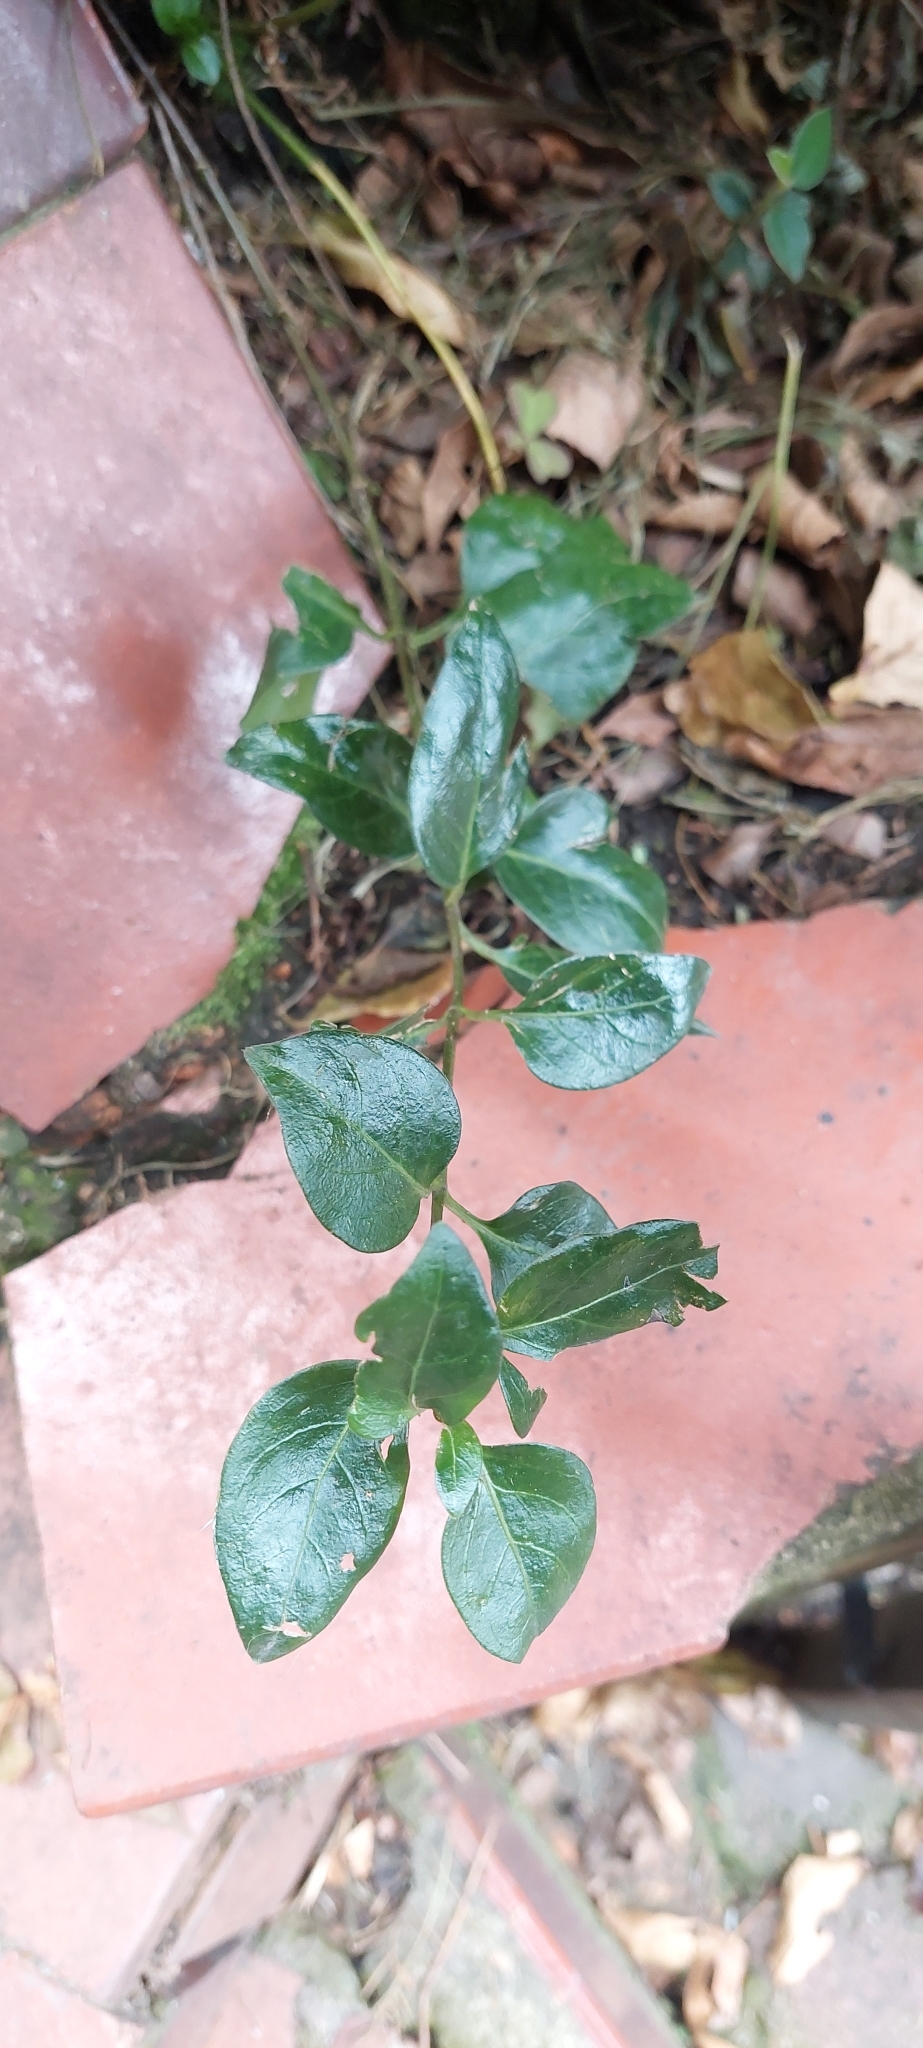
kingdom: Plantae
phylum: Tracheophyta
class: Magnoliopsida
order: Gentianales
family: Apocynaceae
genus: Vinca
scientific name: Vinca major
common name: Greater periwinkle
